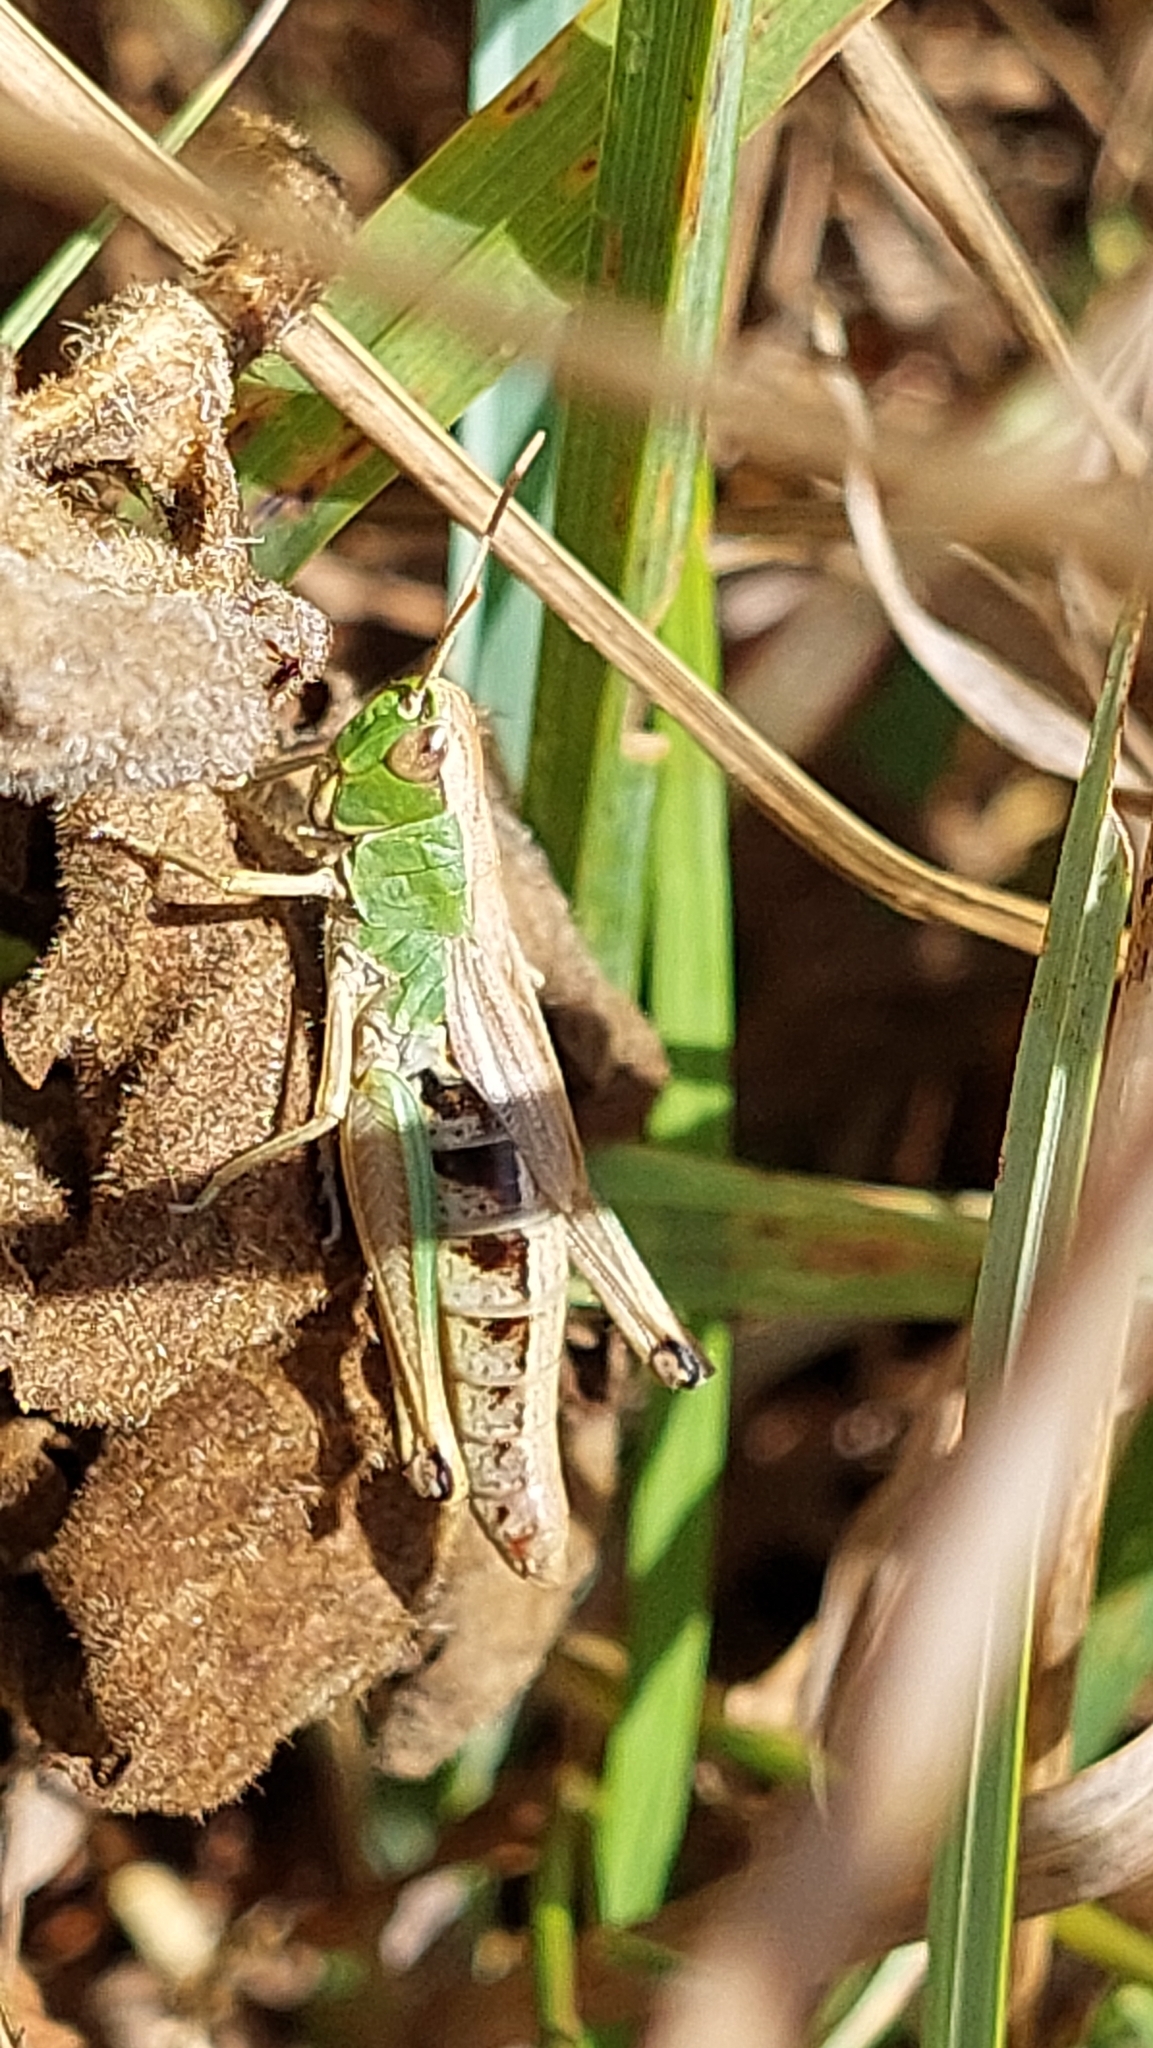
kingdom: Animalia
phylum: Arthropoda
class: Insecta
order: Orthoptera
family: Acrididae
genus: Pseudochorthippus
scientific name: Pseudochorthippus parallelus
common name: Meadow grasshopper
